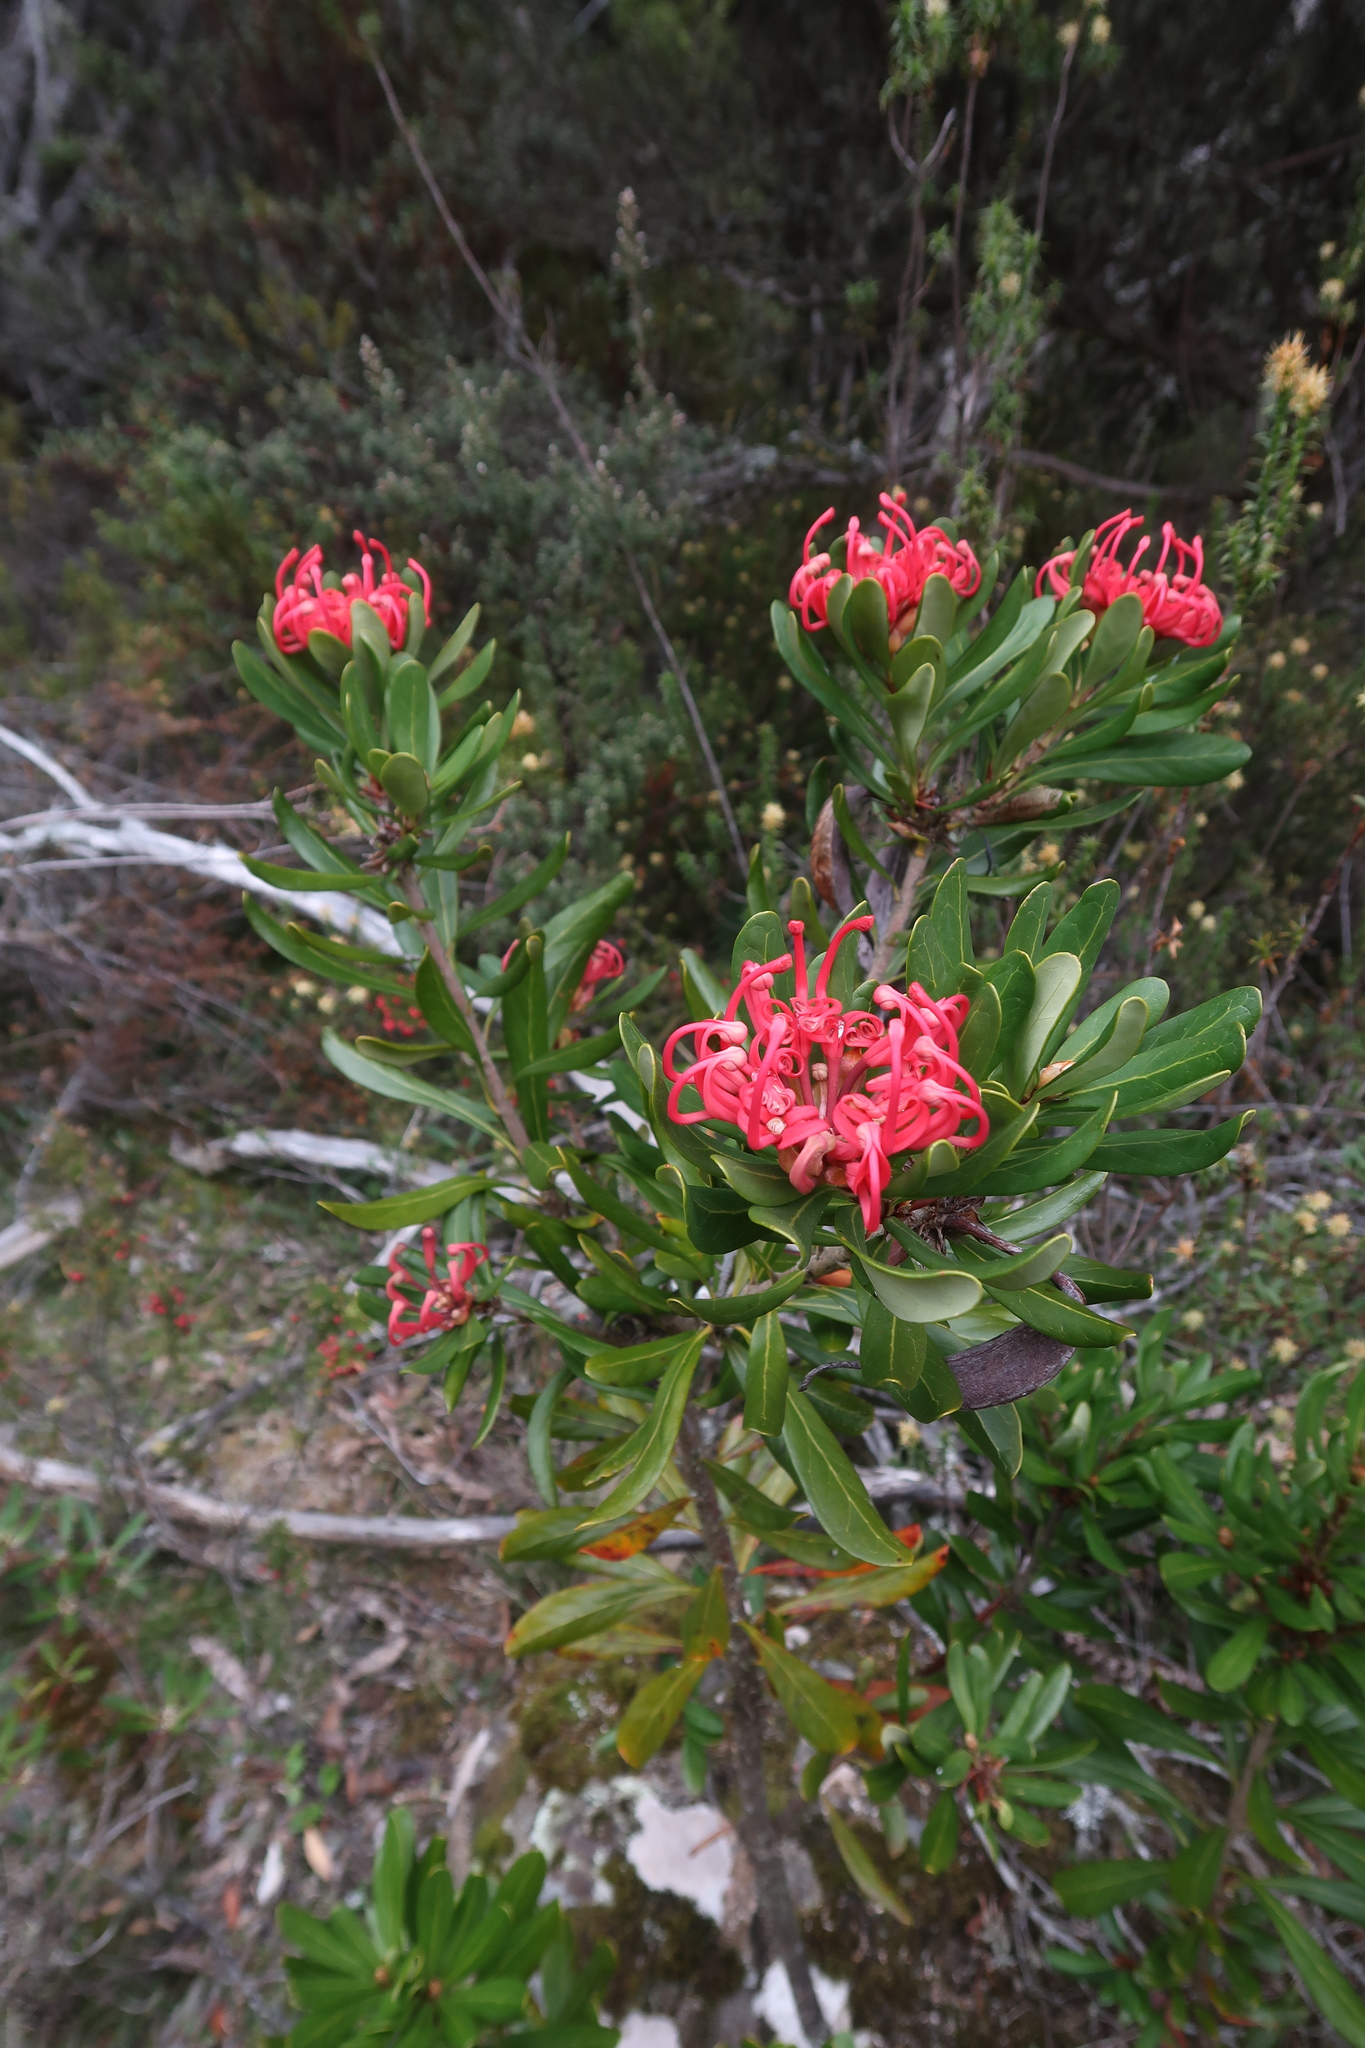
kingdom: Plantae
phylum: Tracheophyta
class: Magnoliopsida
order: Proteales
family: Proteaceae
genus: Telopea
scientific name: Telopea truncata
